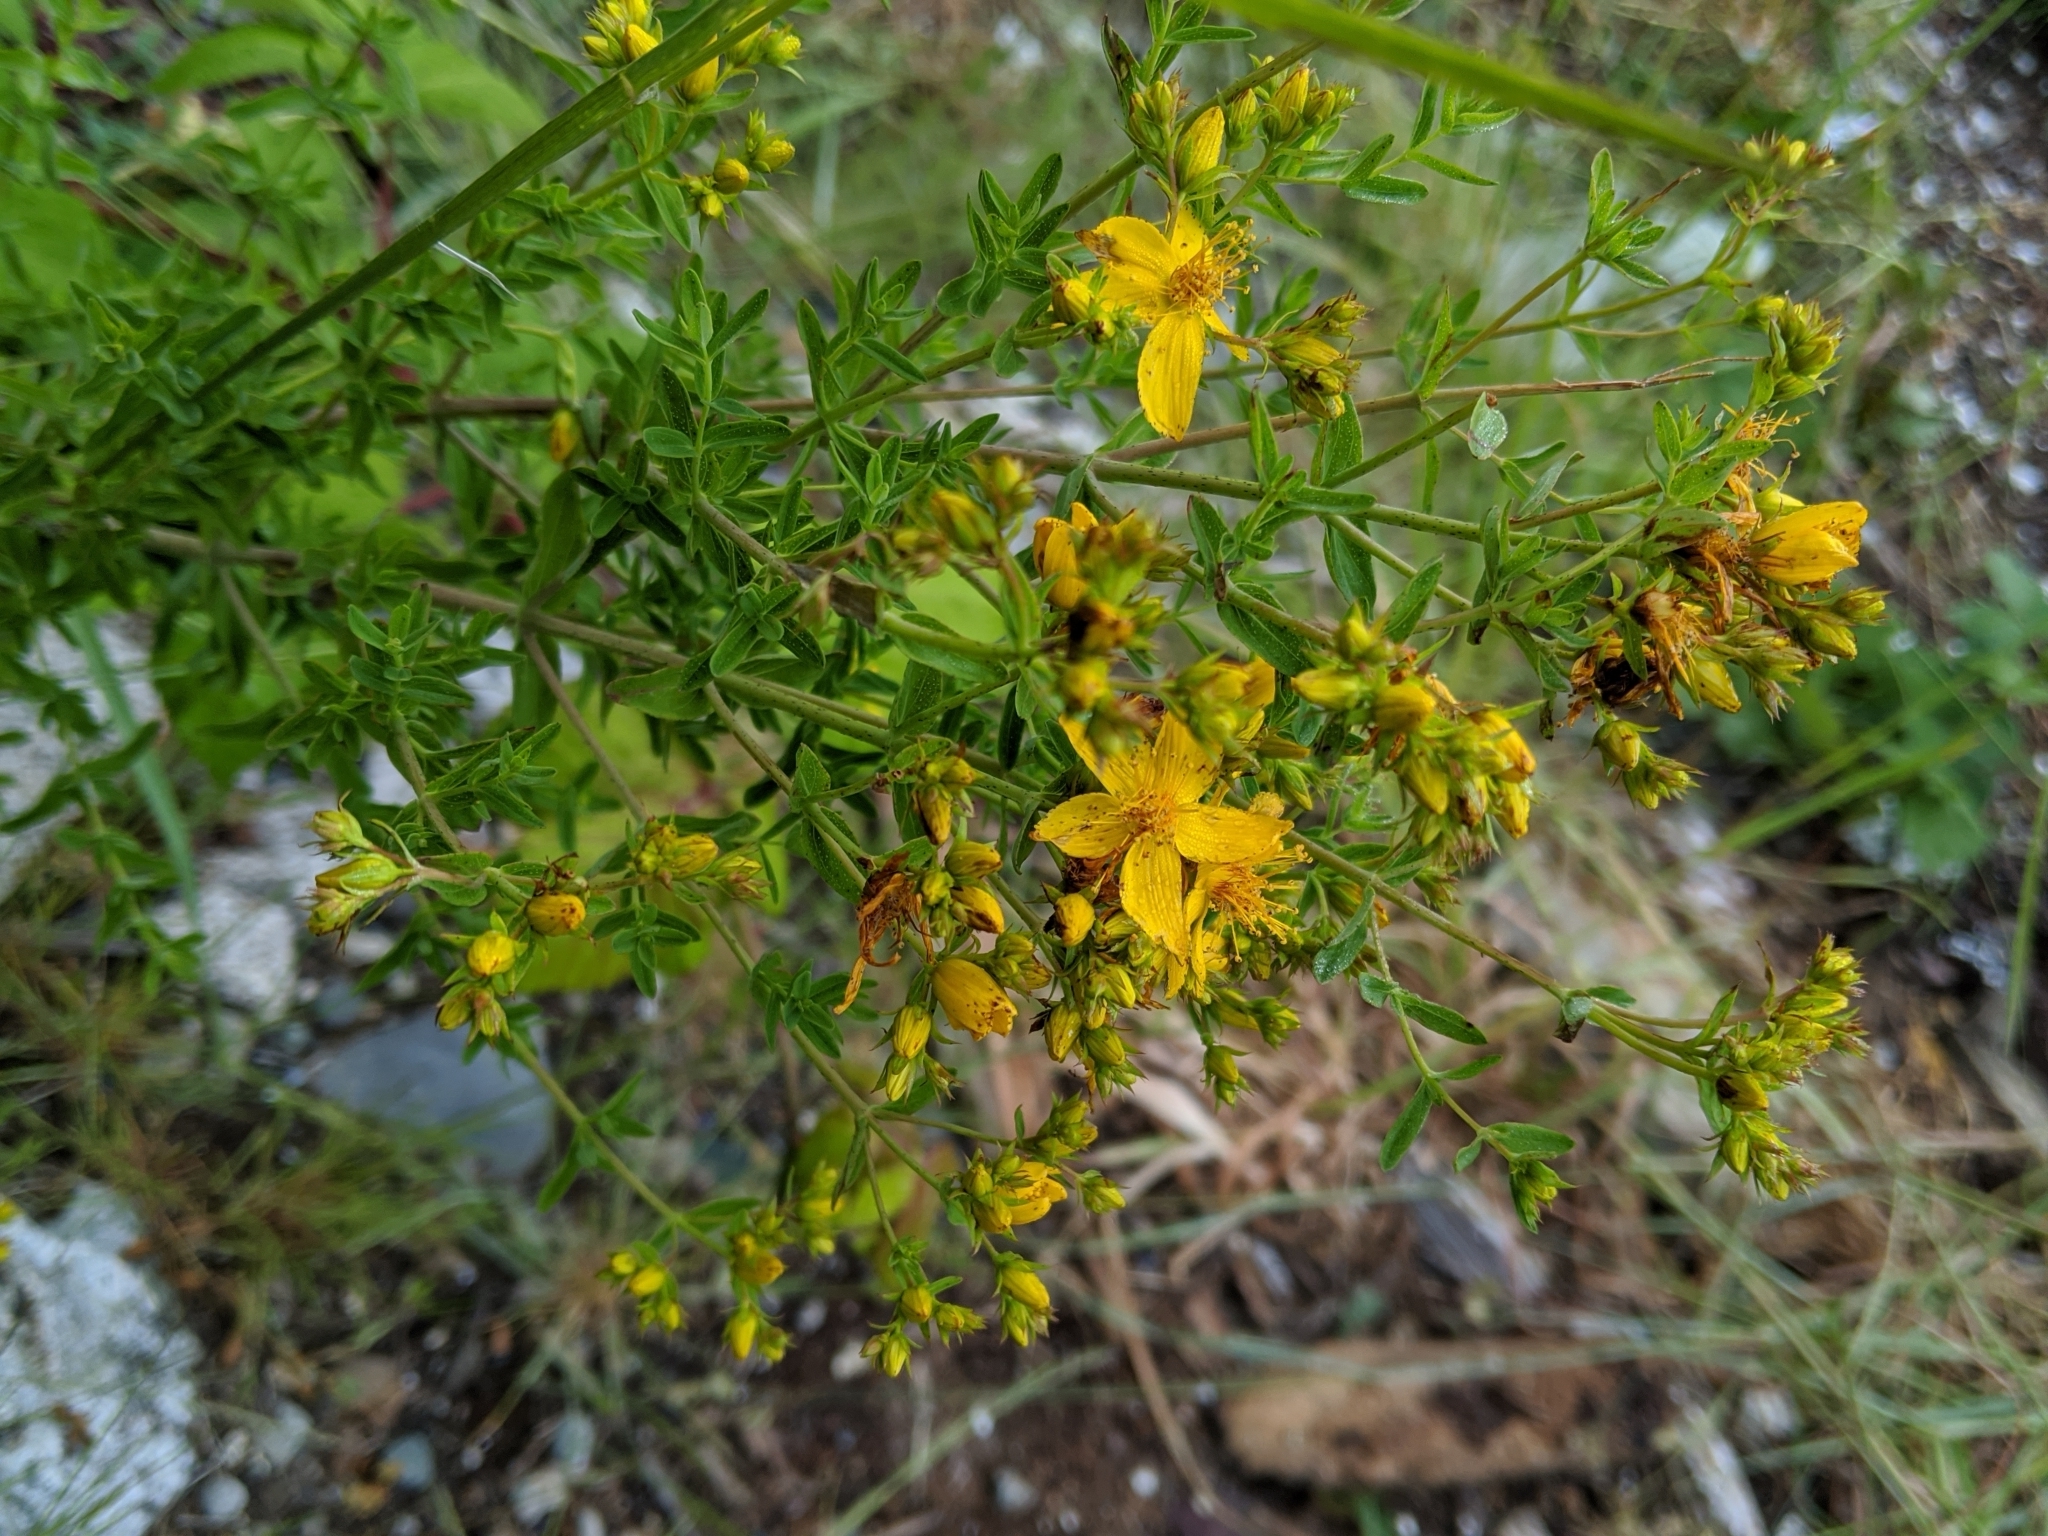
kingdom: Plantae
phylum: Tracheophyta
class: Magnoliopsida
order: Malpighiales
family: Hypericaceae
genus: Hypericum
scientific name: Hypericum perforatum
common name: Common st. johnswort
